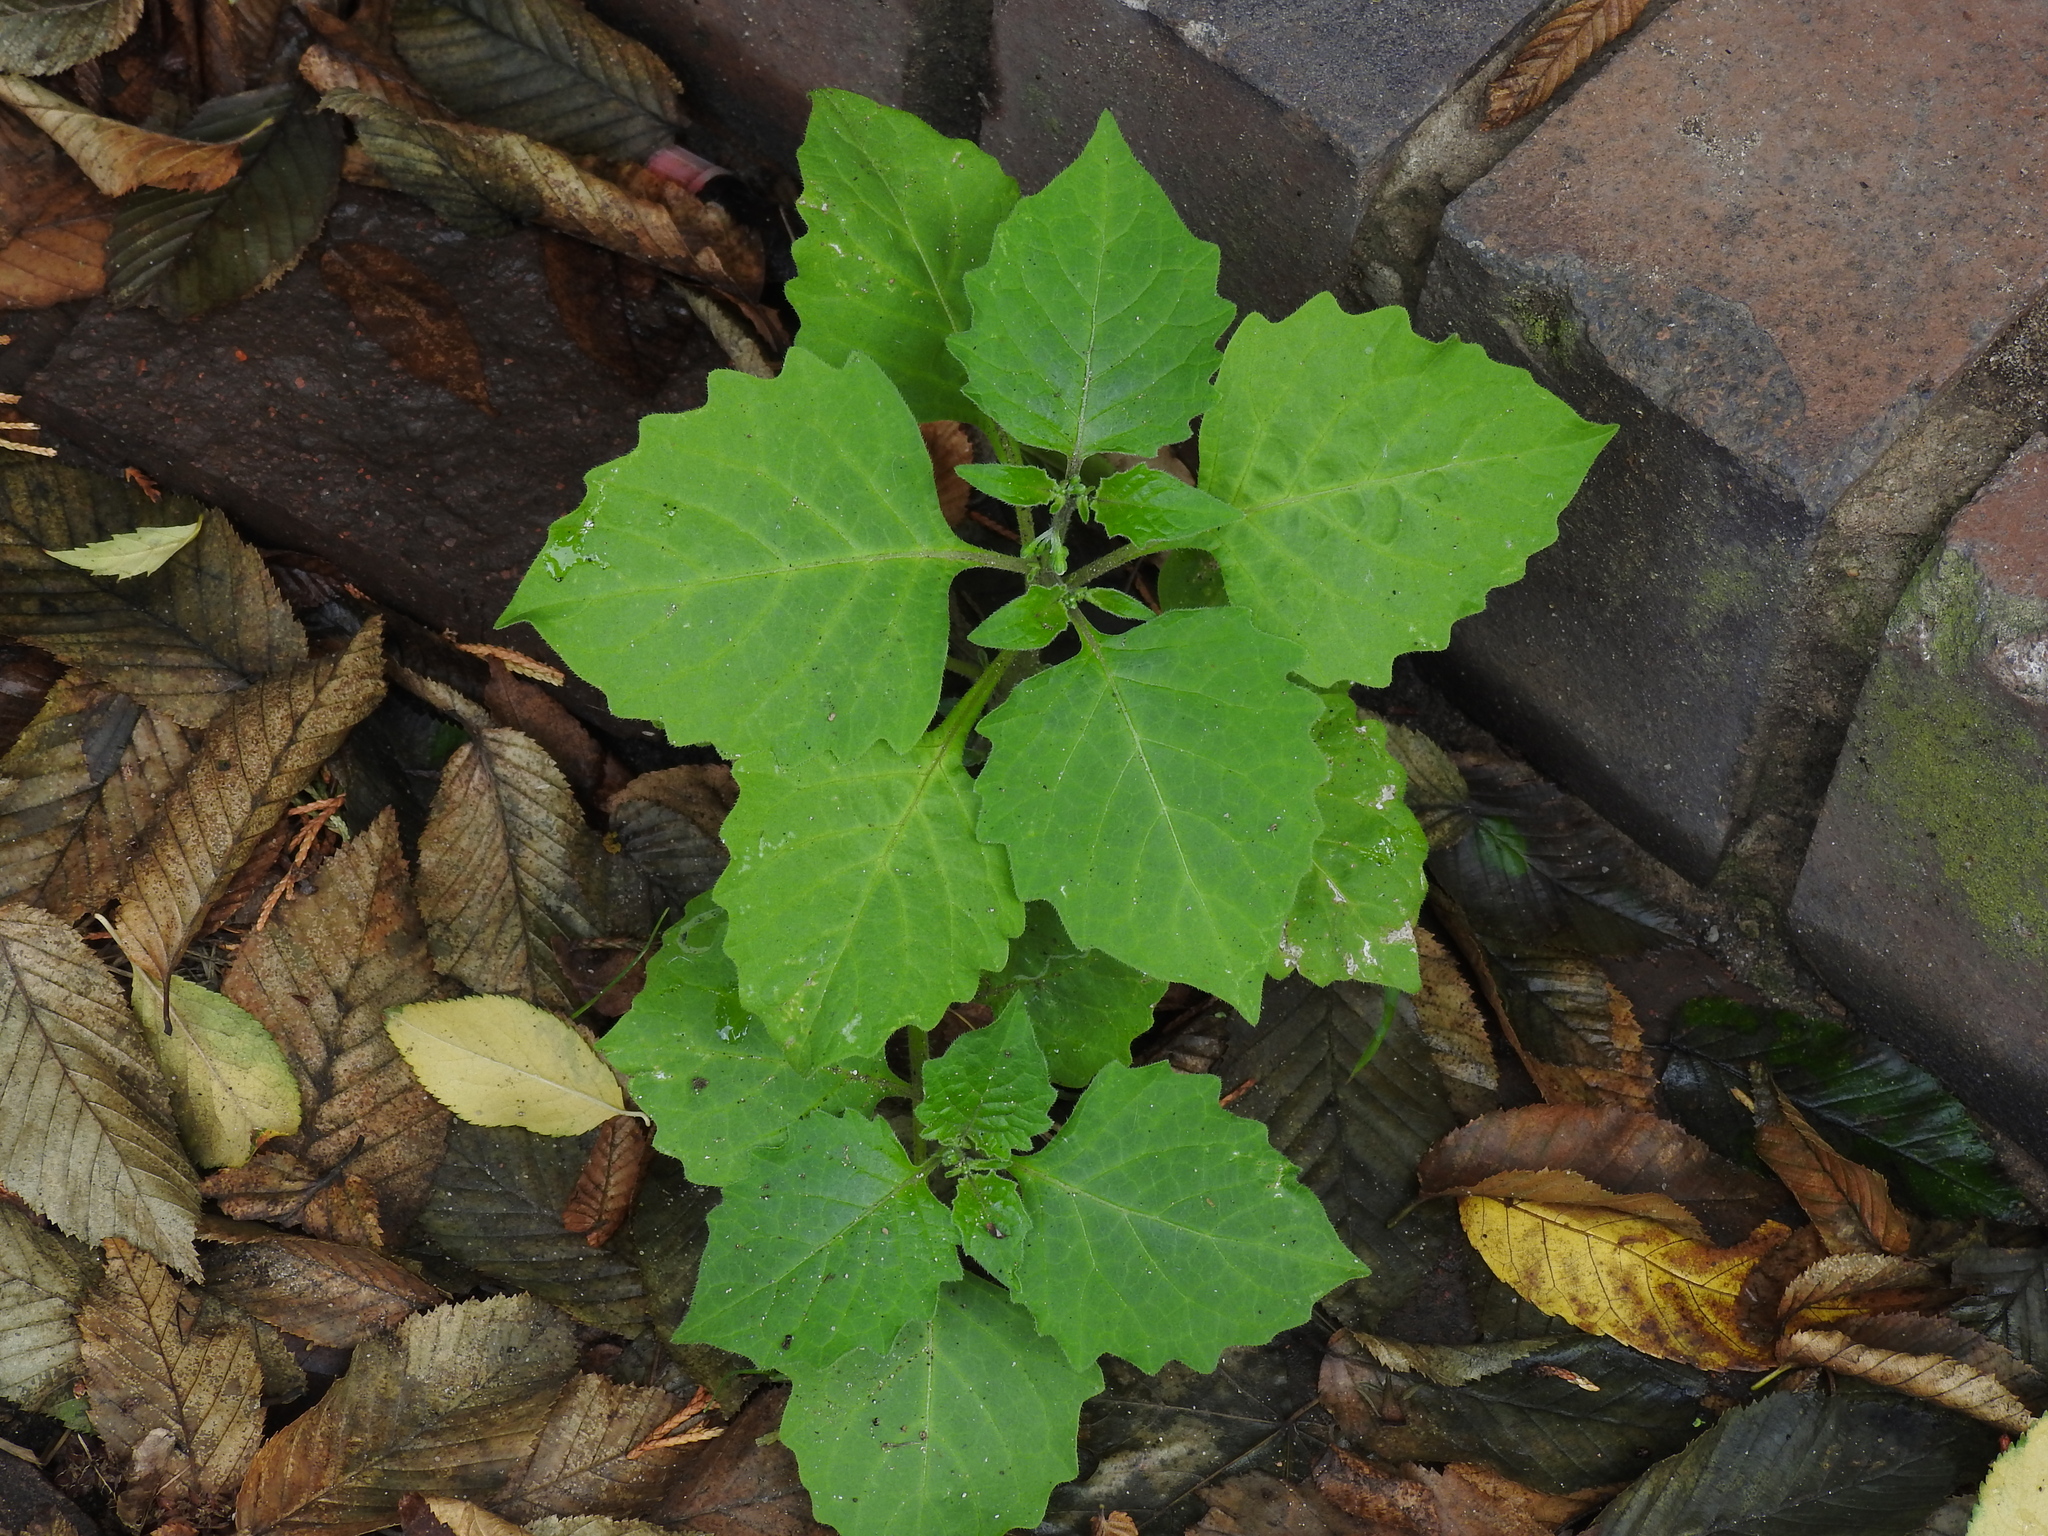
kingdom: Plantae
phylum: Tracheophyta
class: Magnoliopsida
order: Solanales
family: Solanaceae
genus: Solanum
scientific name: Solanum decipiens
